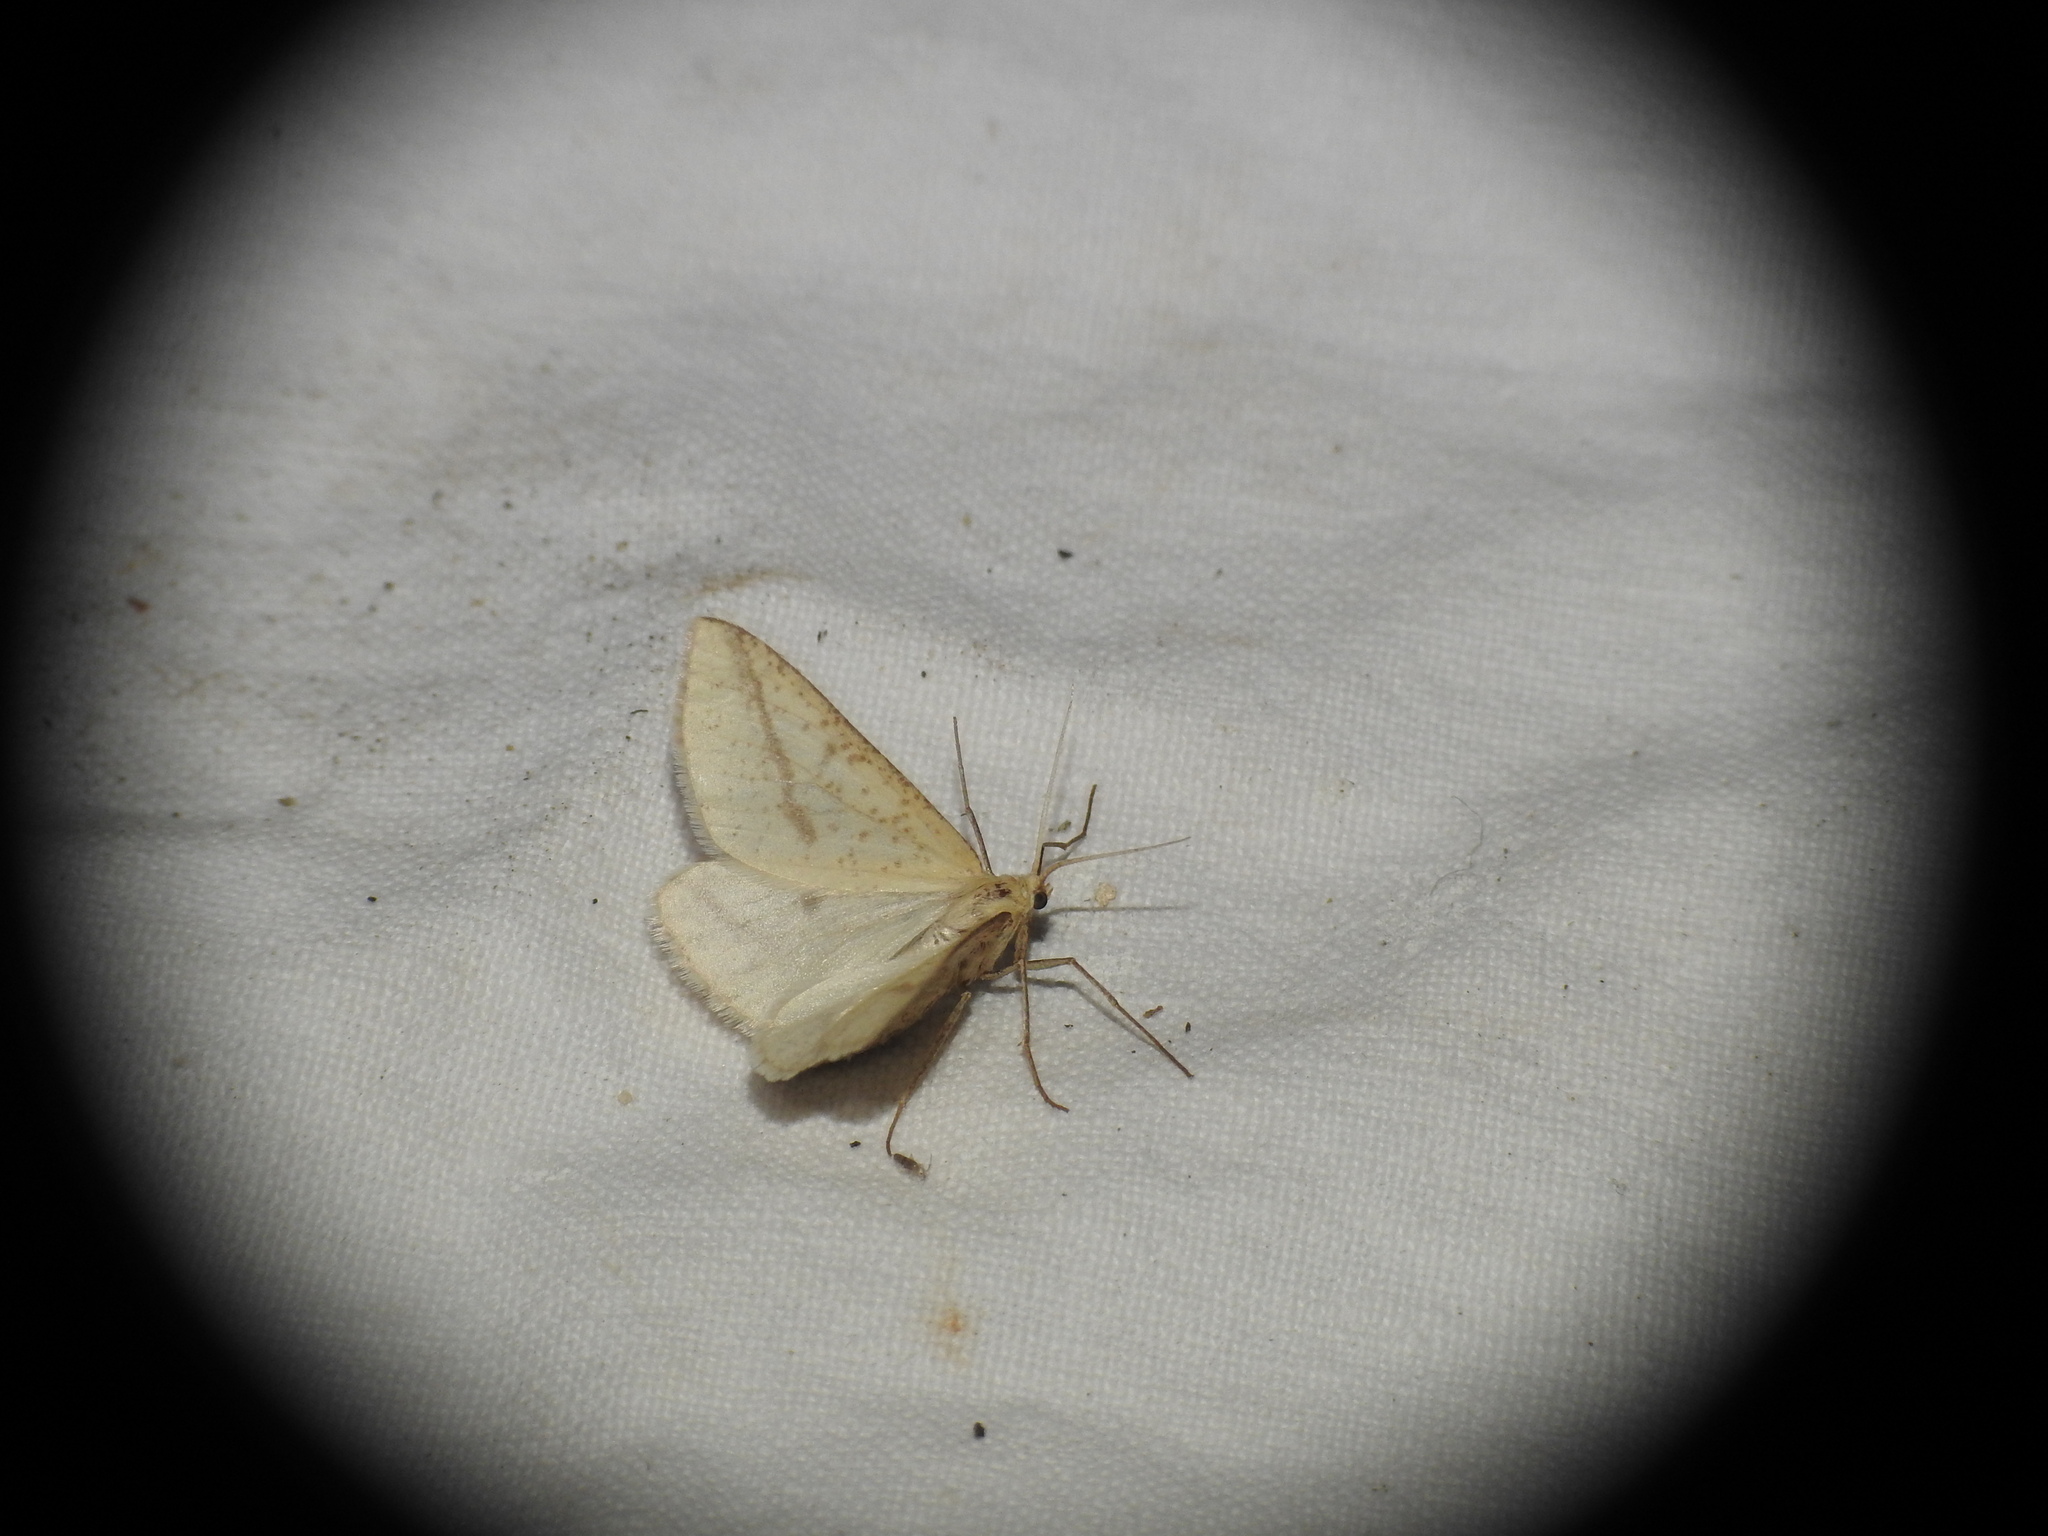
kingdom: Animalia
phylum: Arthropoda
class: Insecta
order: Lepidoptera
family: Geometridae
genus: Aspitates
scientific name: Aspitates gilvaria
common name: Straw belle
